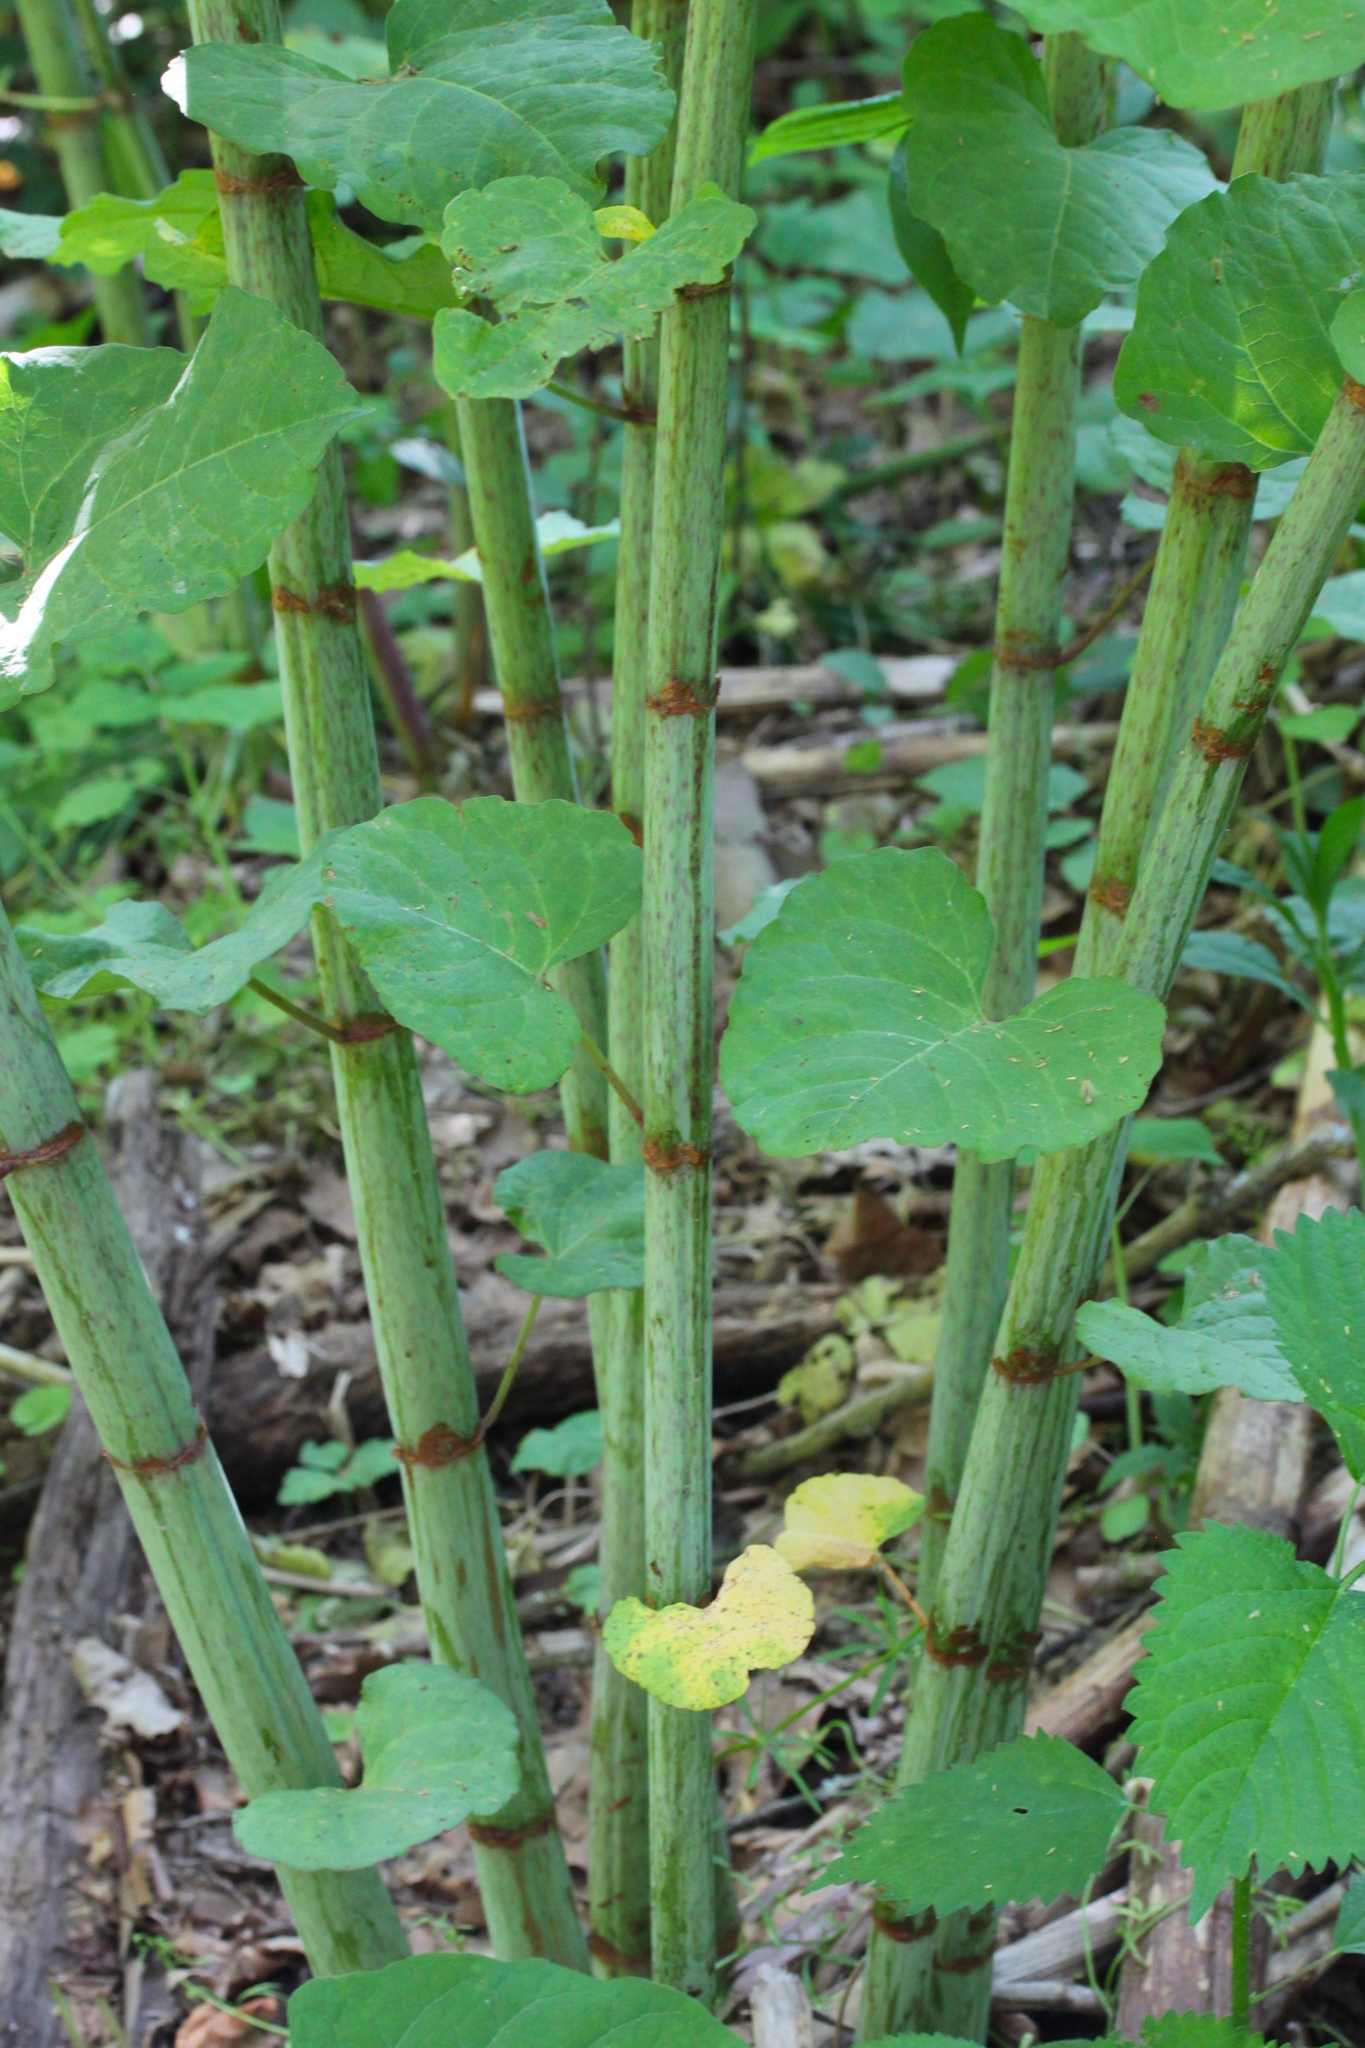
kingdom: Plantae
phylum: Tracheophyta
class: Magnoliopsida
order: Caryophyllales
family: Polygonaceae
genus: Reynoutria
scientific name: Reynoutria japonica
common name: Japanese knotweed
